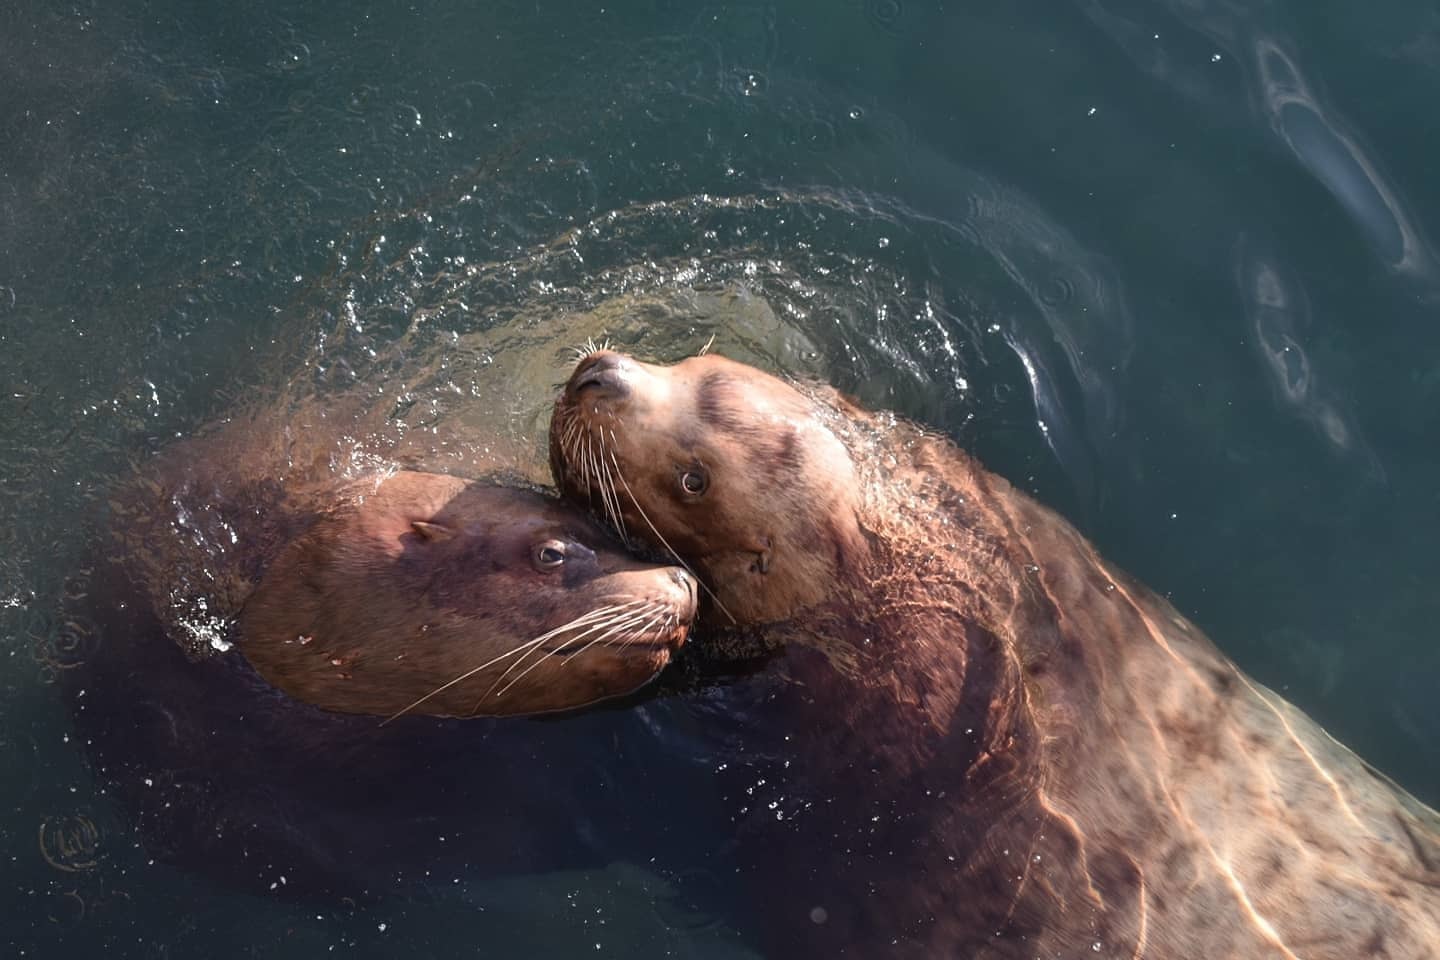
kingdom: Animalia
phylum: Chordata
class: Mammalia
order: Carnivora
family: Otariidae
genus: Eumetopias
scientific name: Eumetopias jubatus
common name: Steller sea lion
